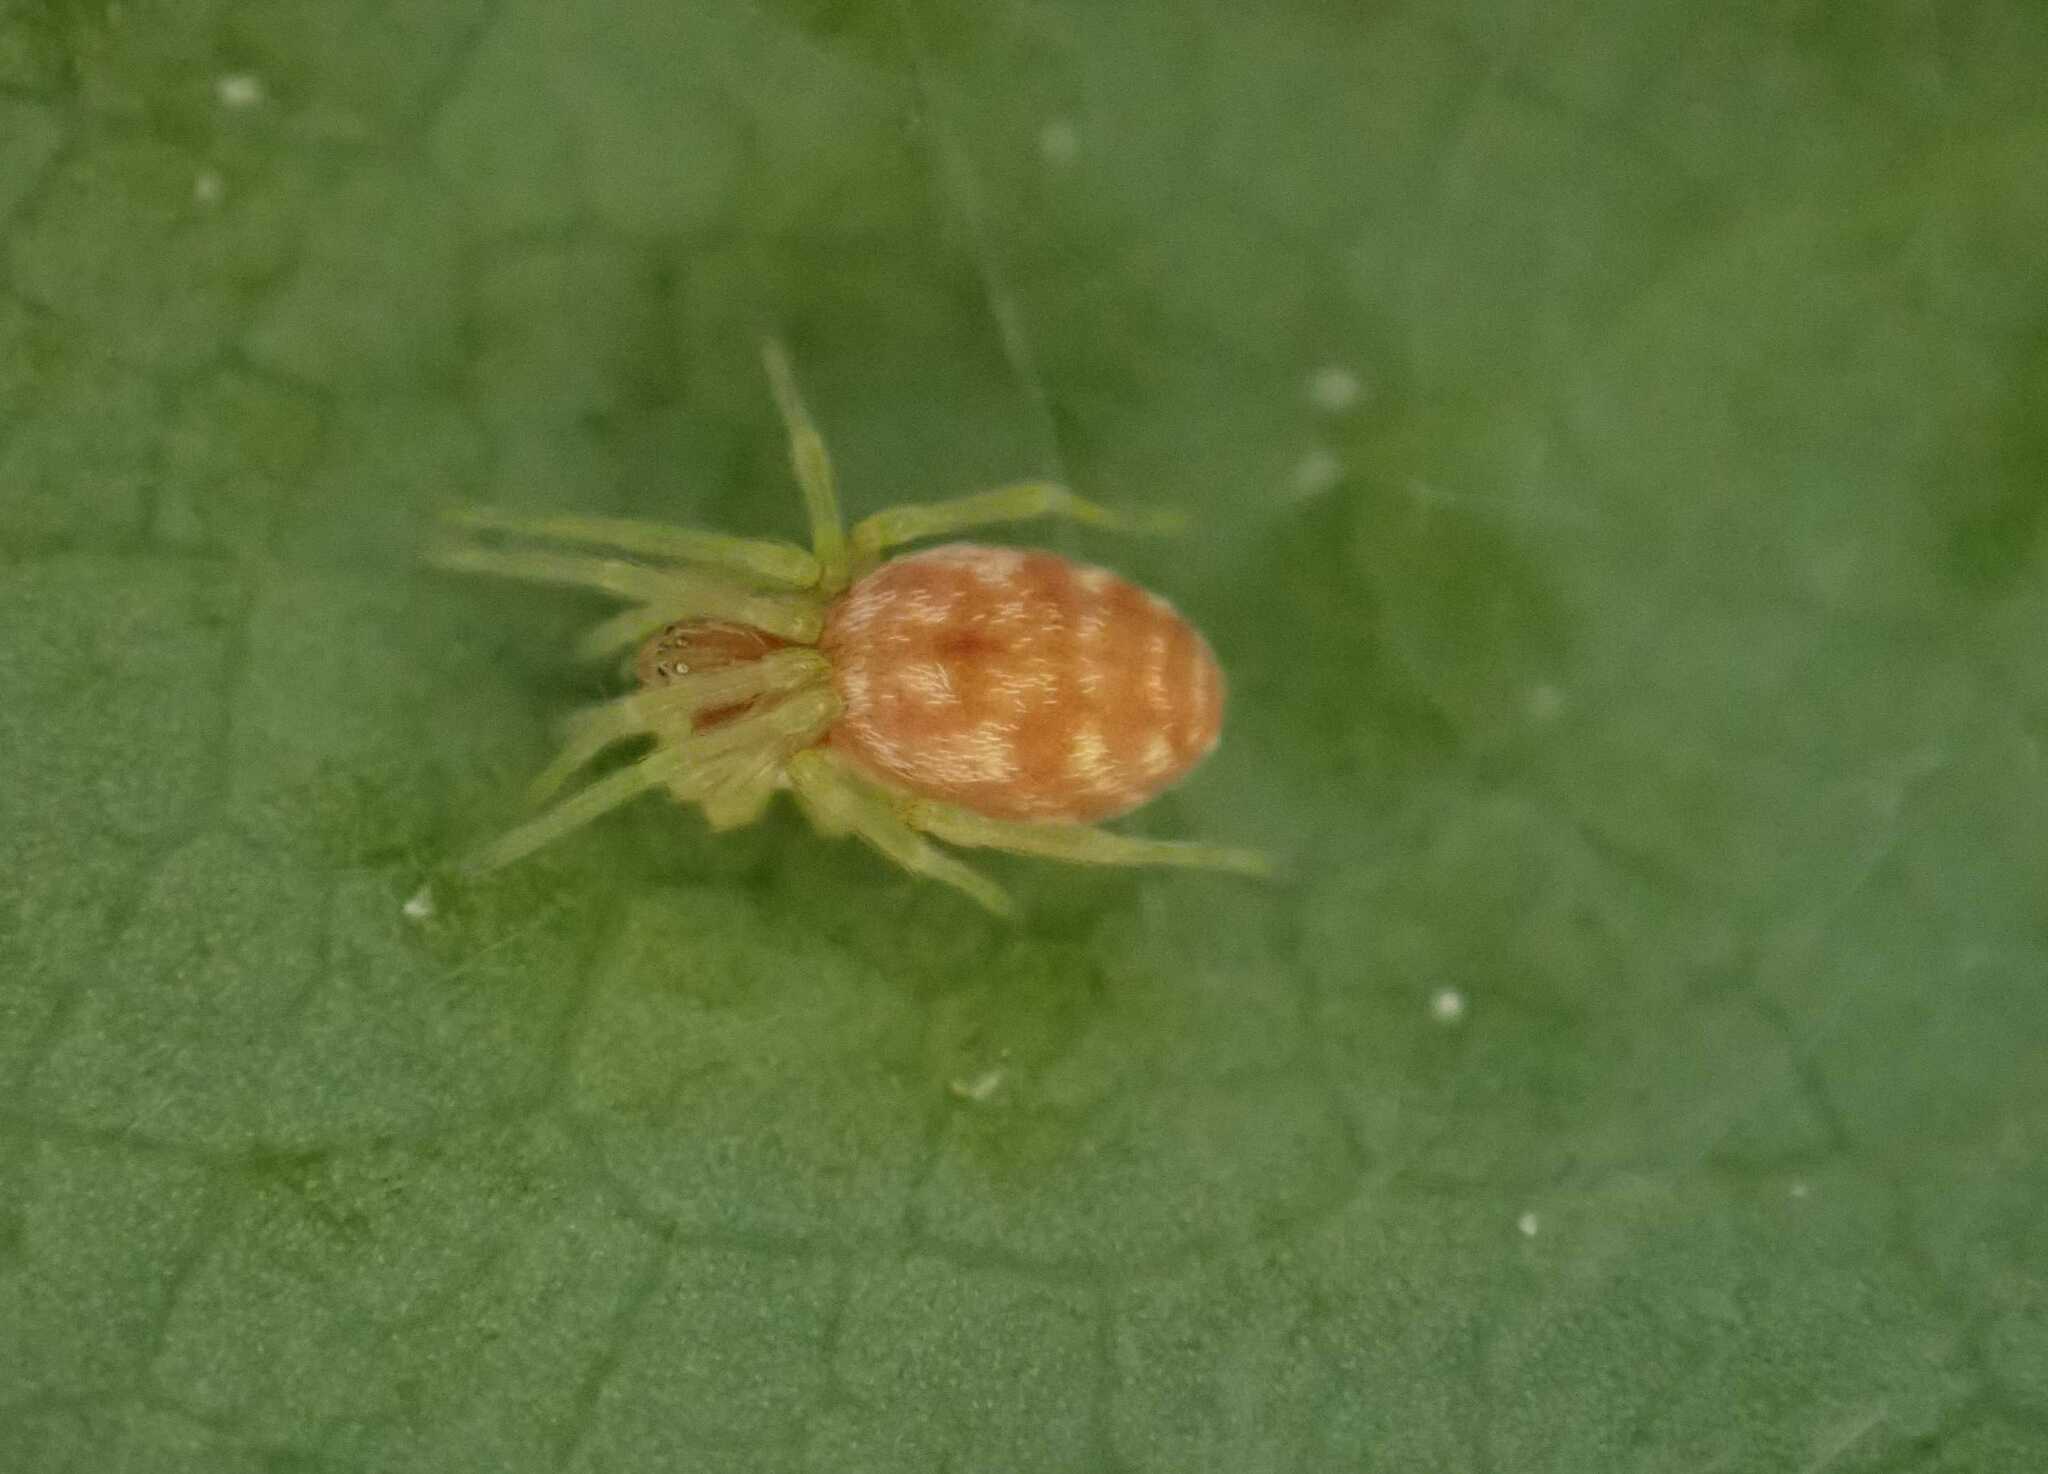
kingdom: Animalia
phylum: Arthropoda
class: Arachnida
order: Araneae
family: Dictynidae
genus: Nigma
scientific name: Nigma flavescens
